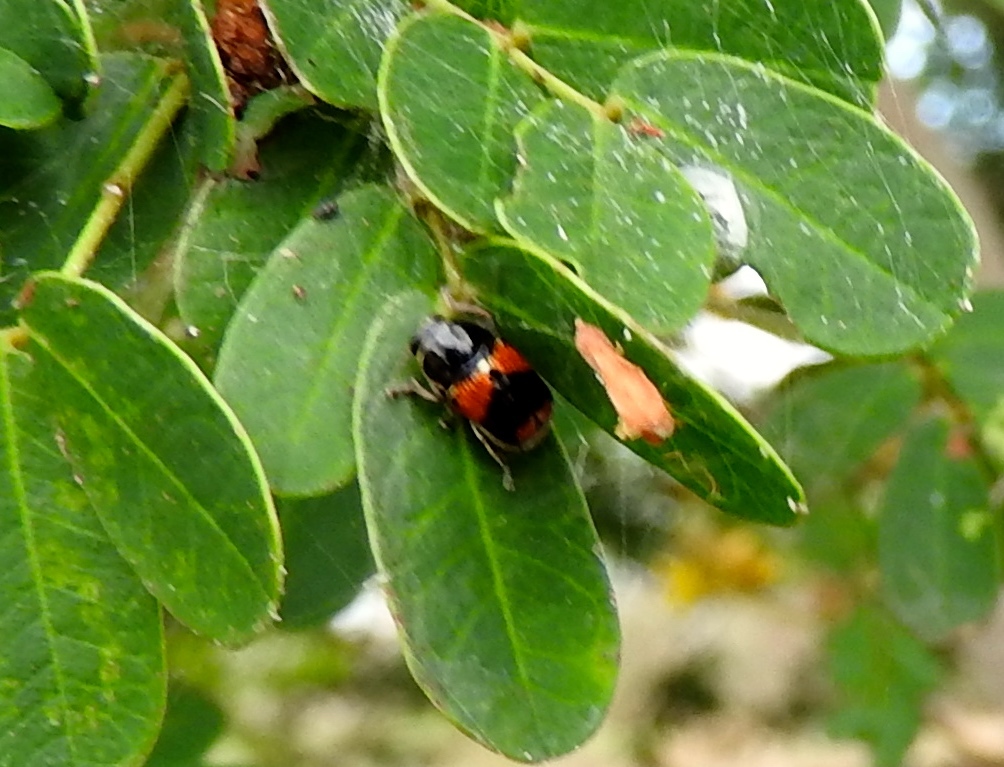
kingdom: Animalia
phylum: Arthropoda
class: Insecta
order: Coleoptera
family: Chrysomelidae
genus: Griburius
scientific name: Griburius albilabris
